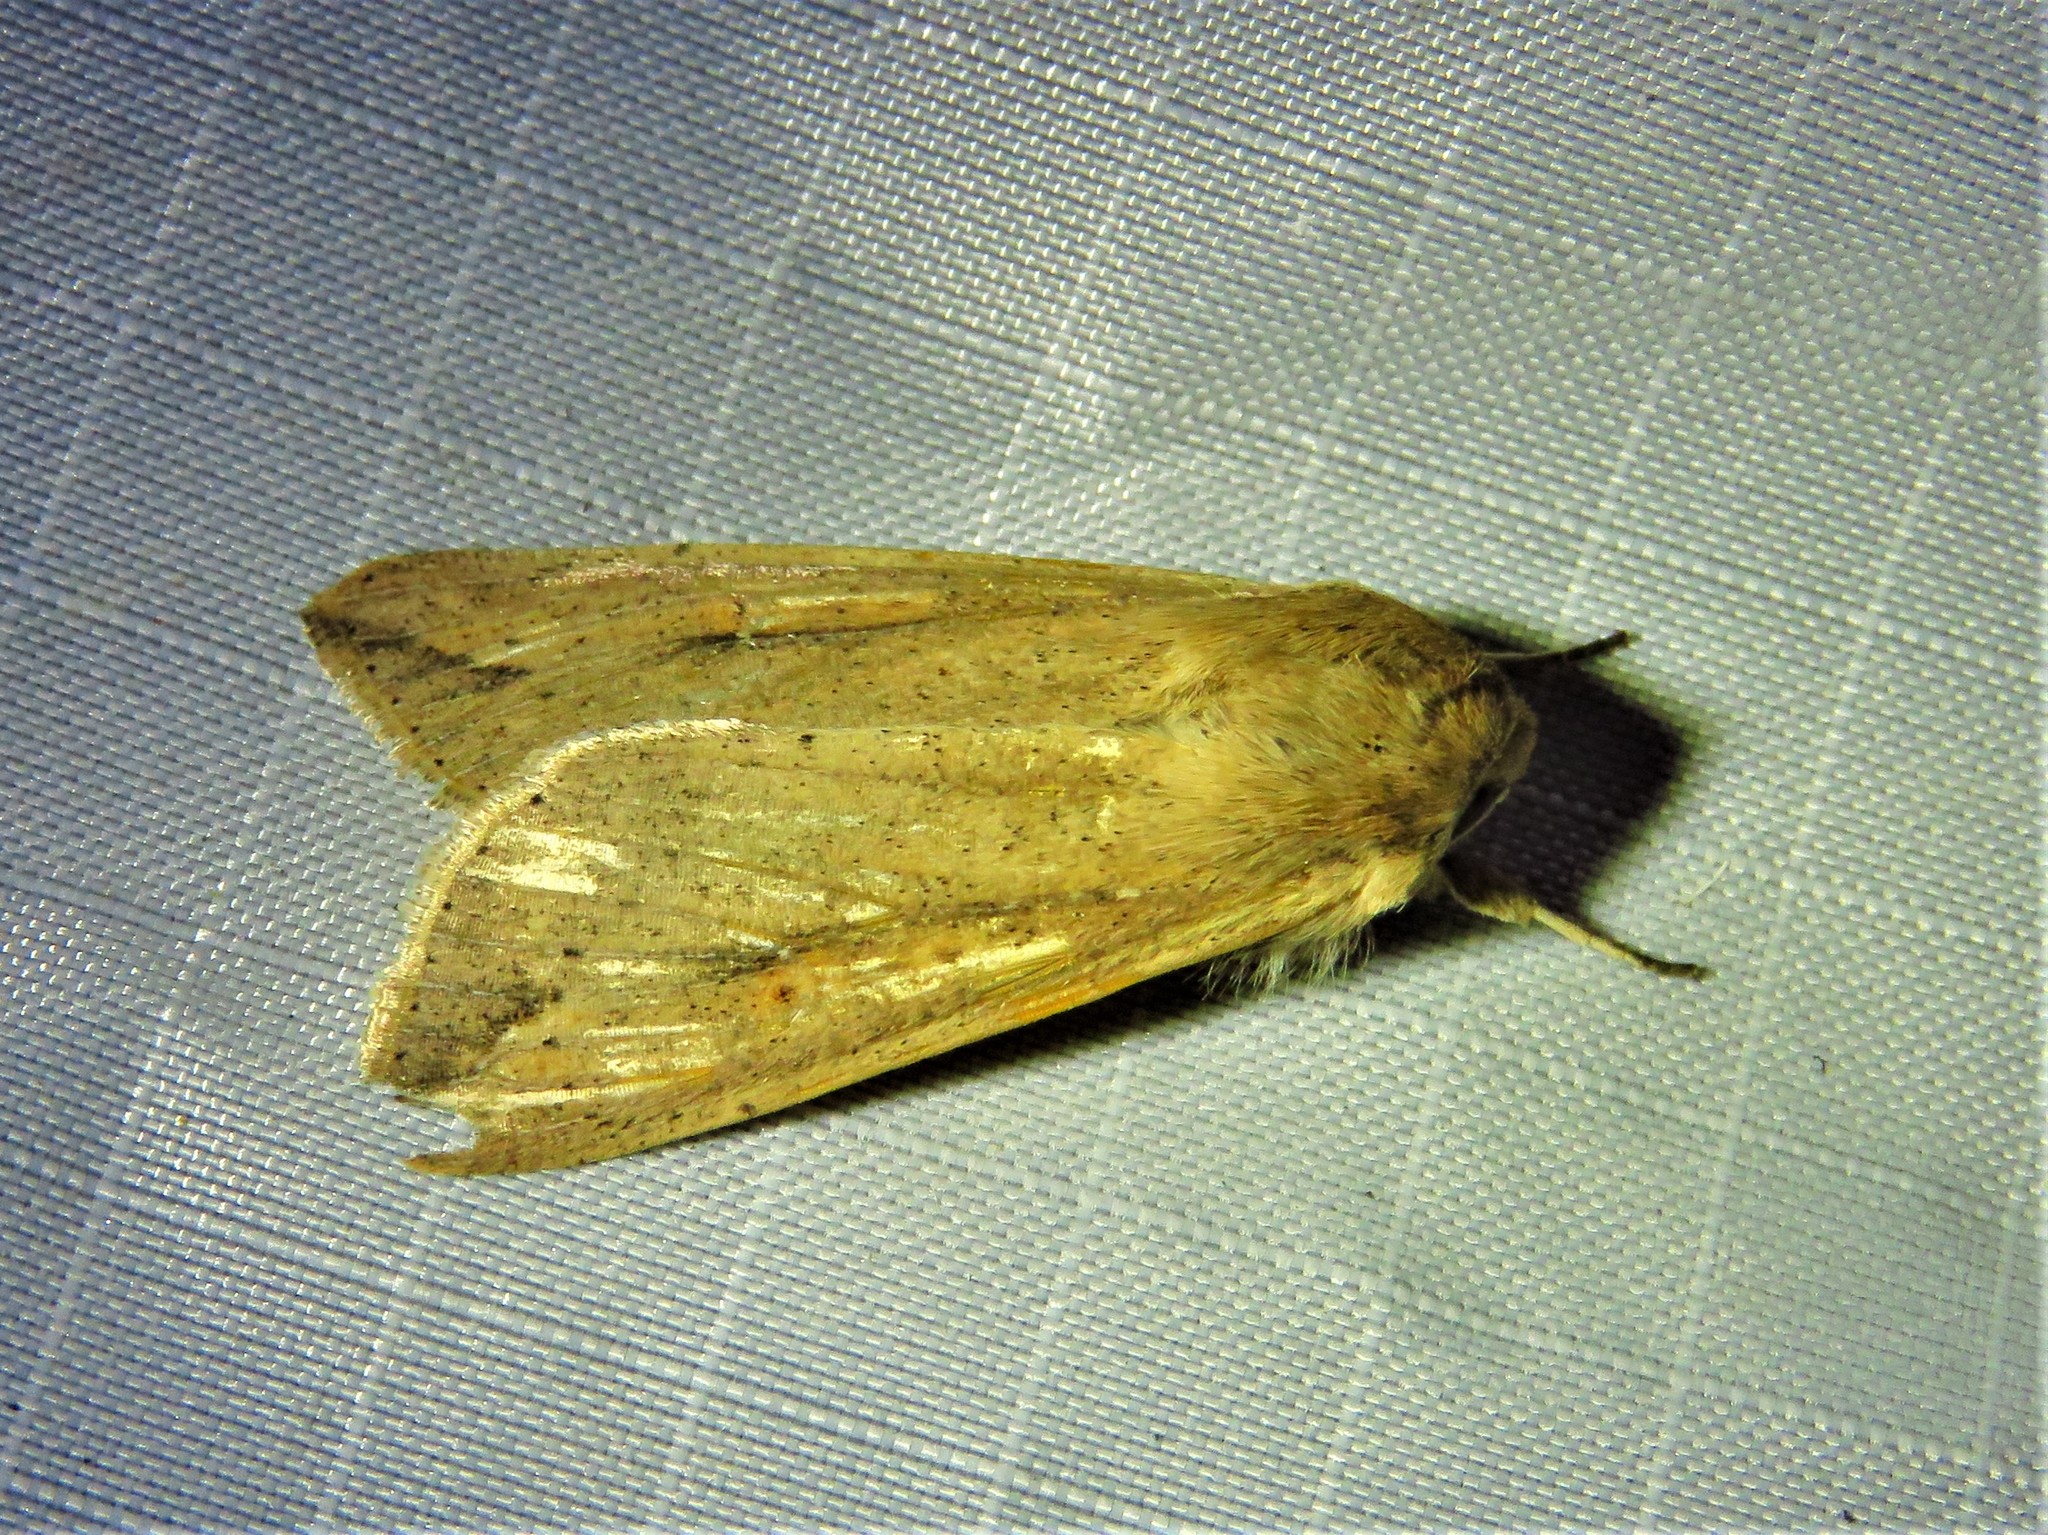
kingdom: Animalia
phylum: Arthropoda
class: Insecta
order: Lepidoptera
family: Noctuidae
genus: Mythimna
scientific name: Mythimna unipuncta
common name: White-speck
